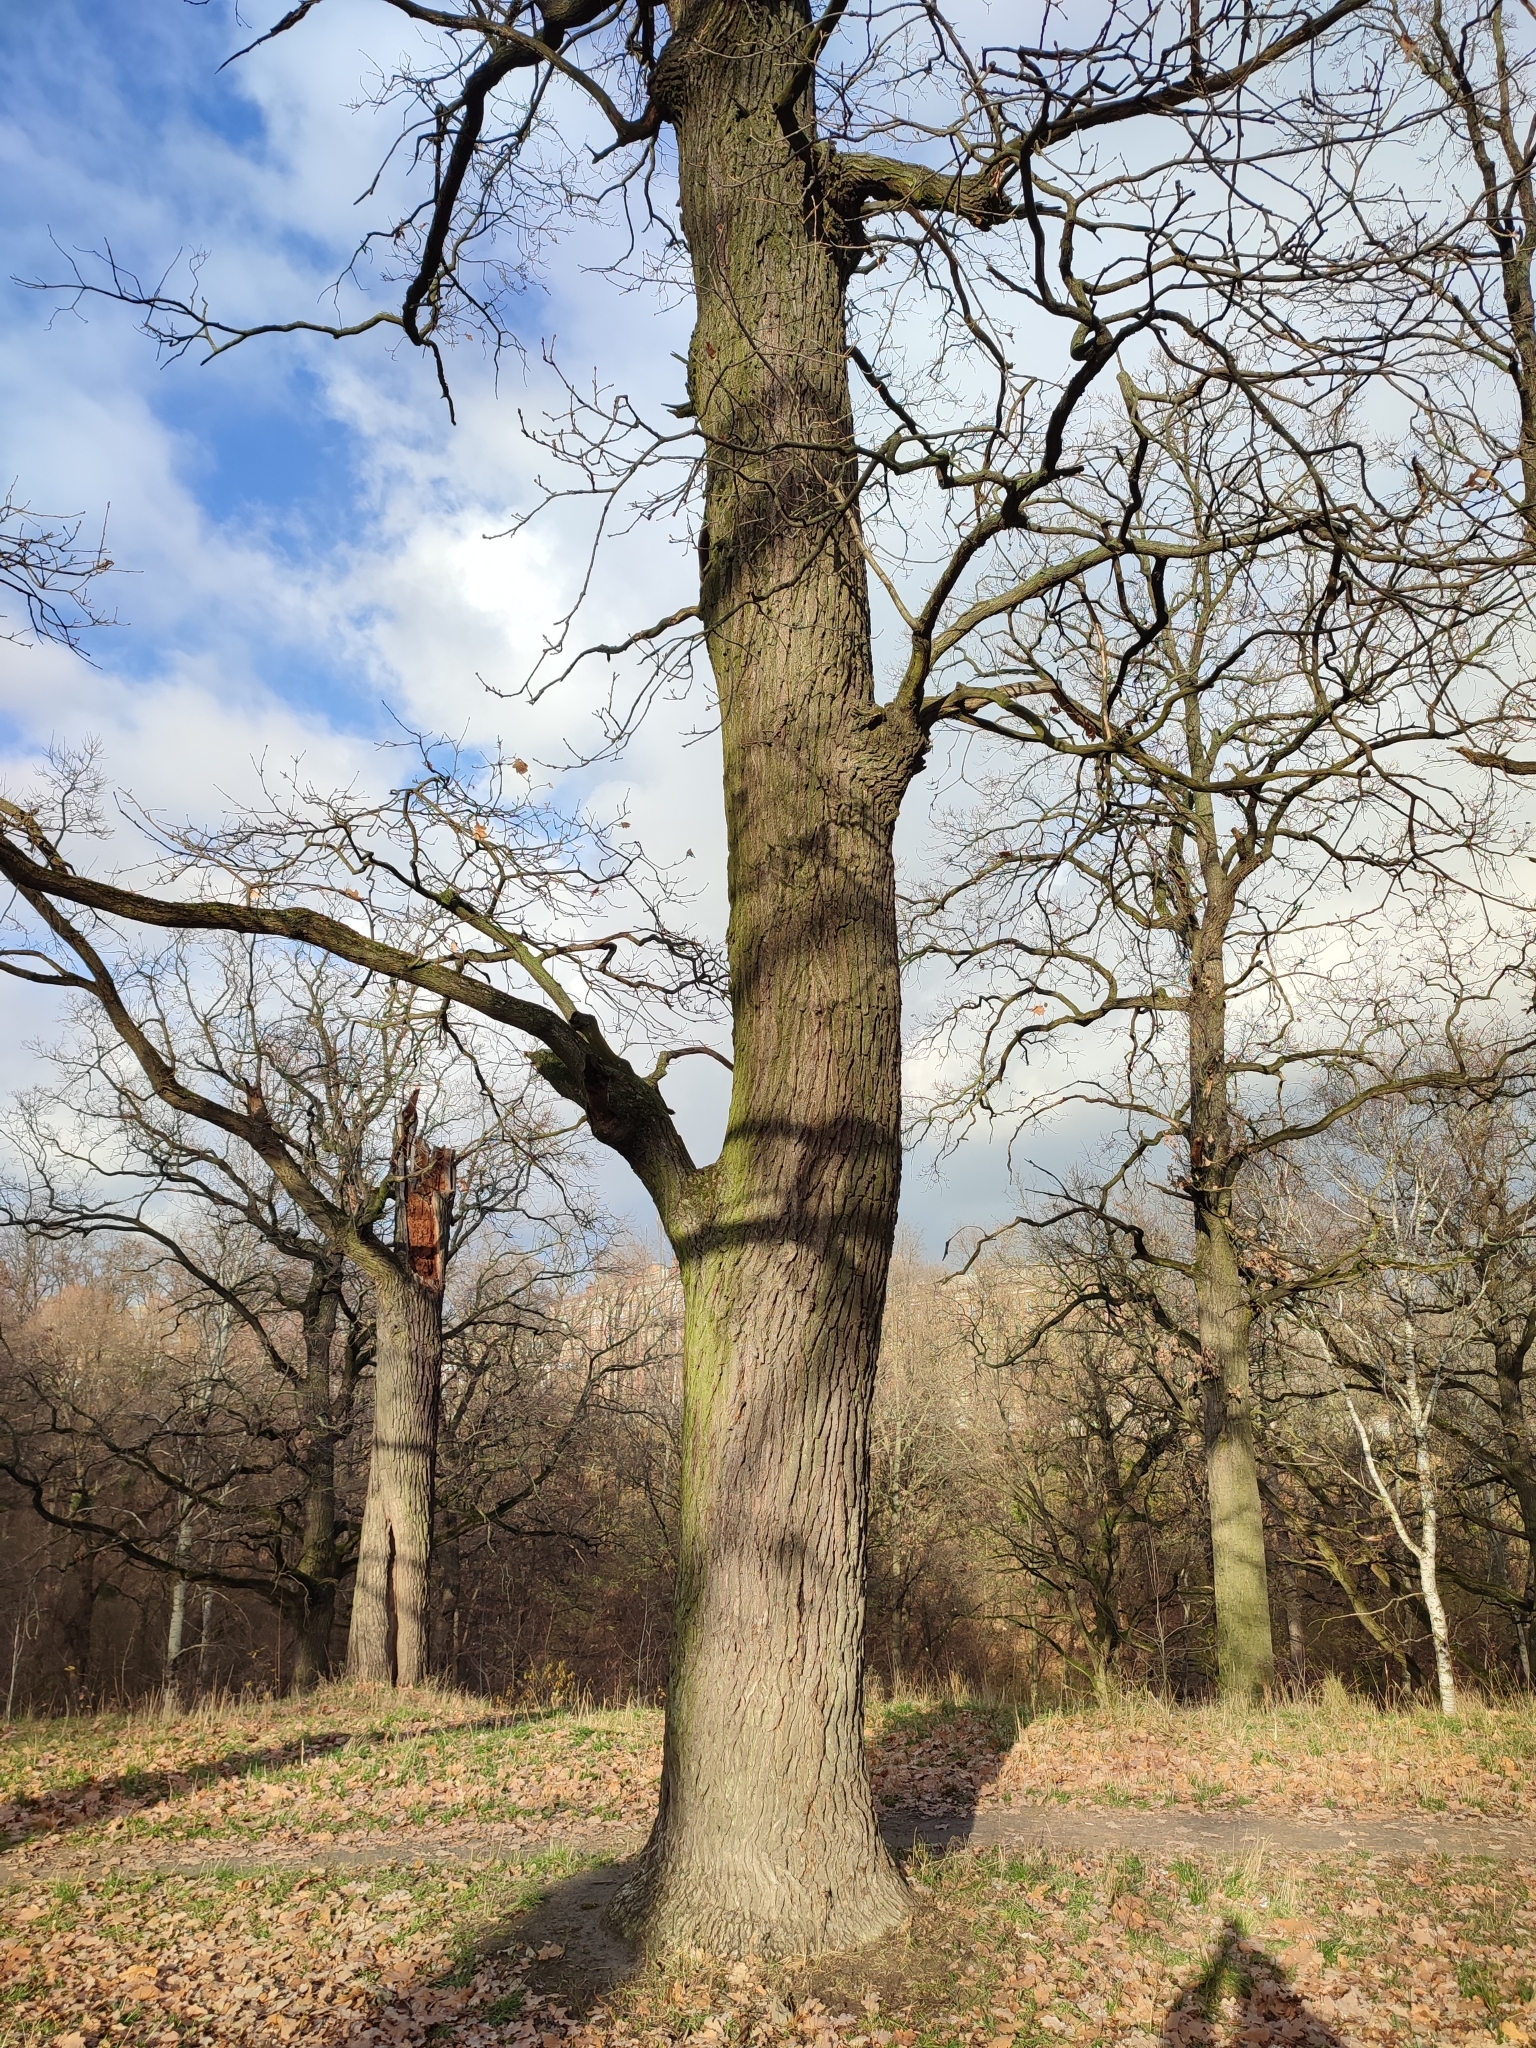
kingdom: Plantae
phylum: Tracheophyta
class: Magnoliopsida
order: Fagales
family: Fagaceae
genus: Quercus
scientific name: Quercus robur
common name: Pedunculate oak
